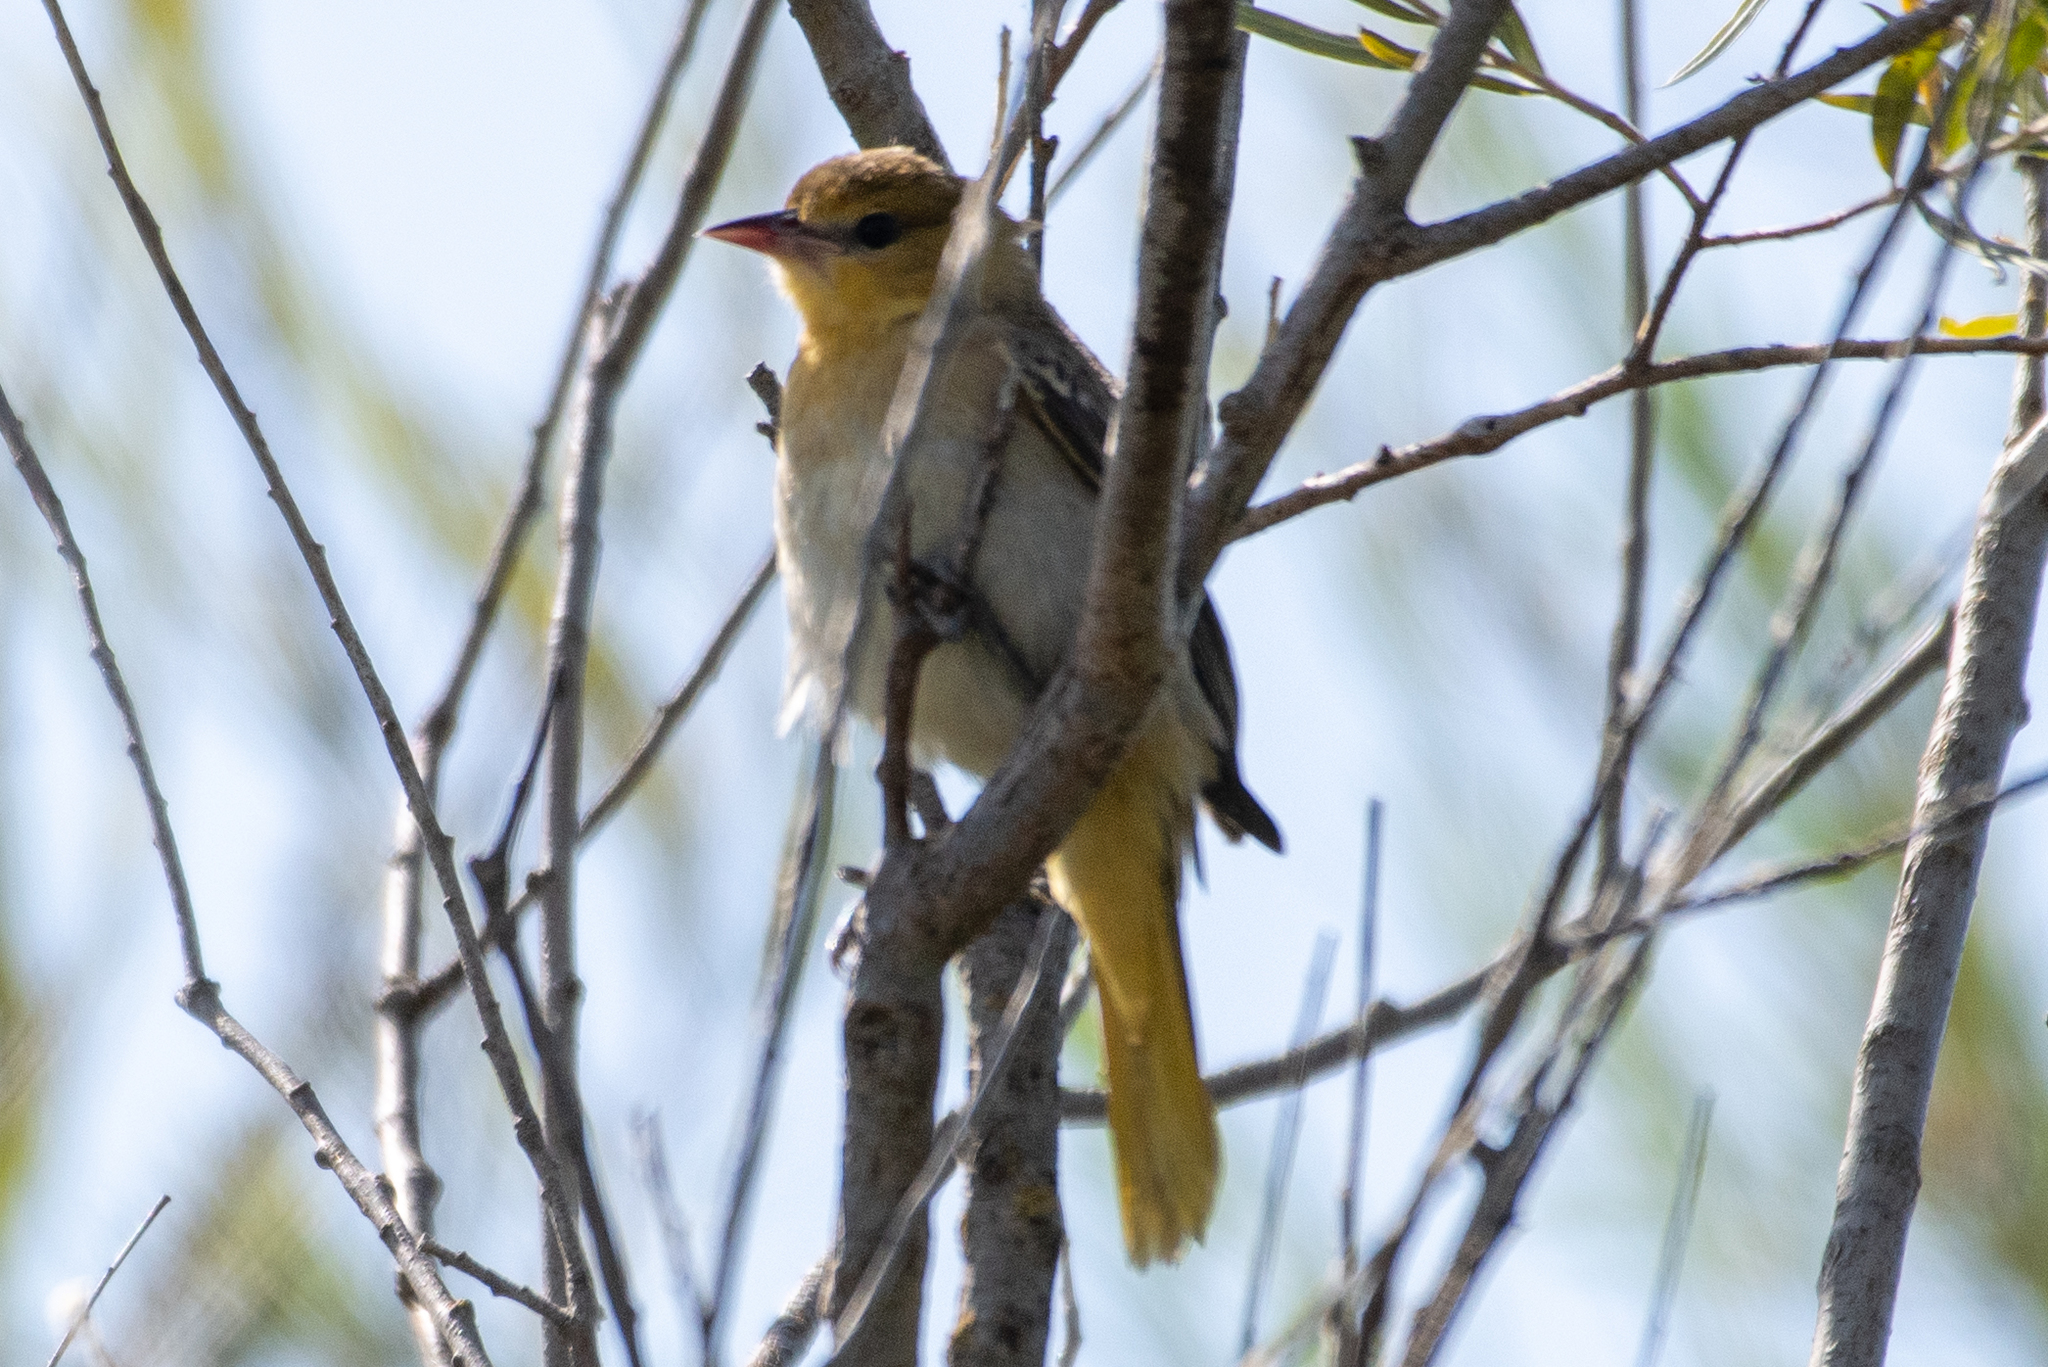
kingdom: Animalia
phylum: Chordata
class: Aves
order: Passeriformes
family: Icteridae
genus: Icterus
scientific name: Icterus bullockii
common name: Bullock's oriole
